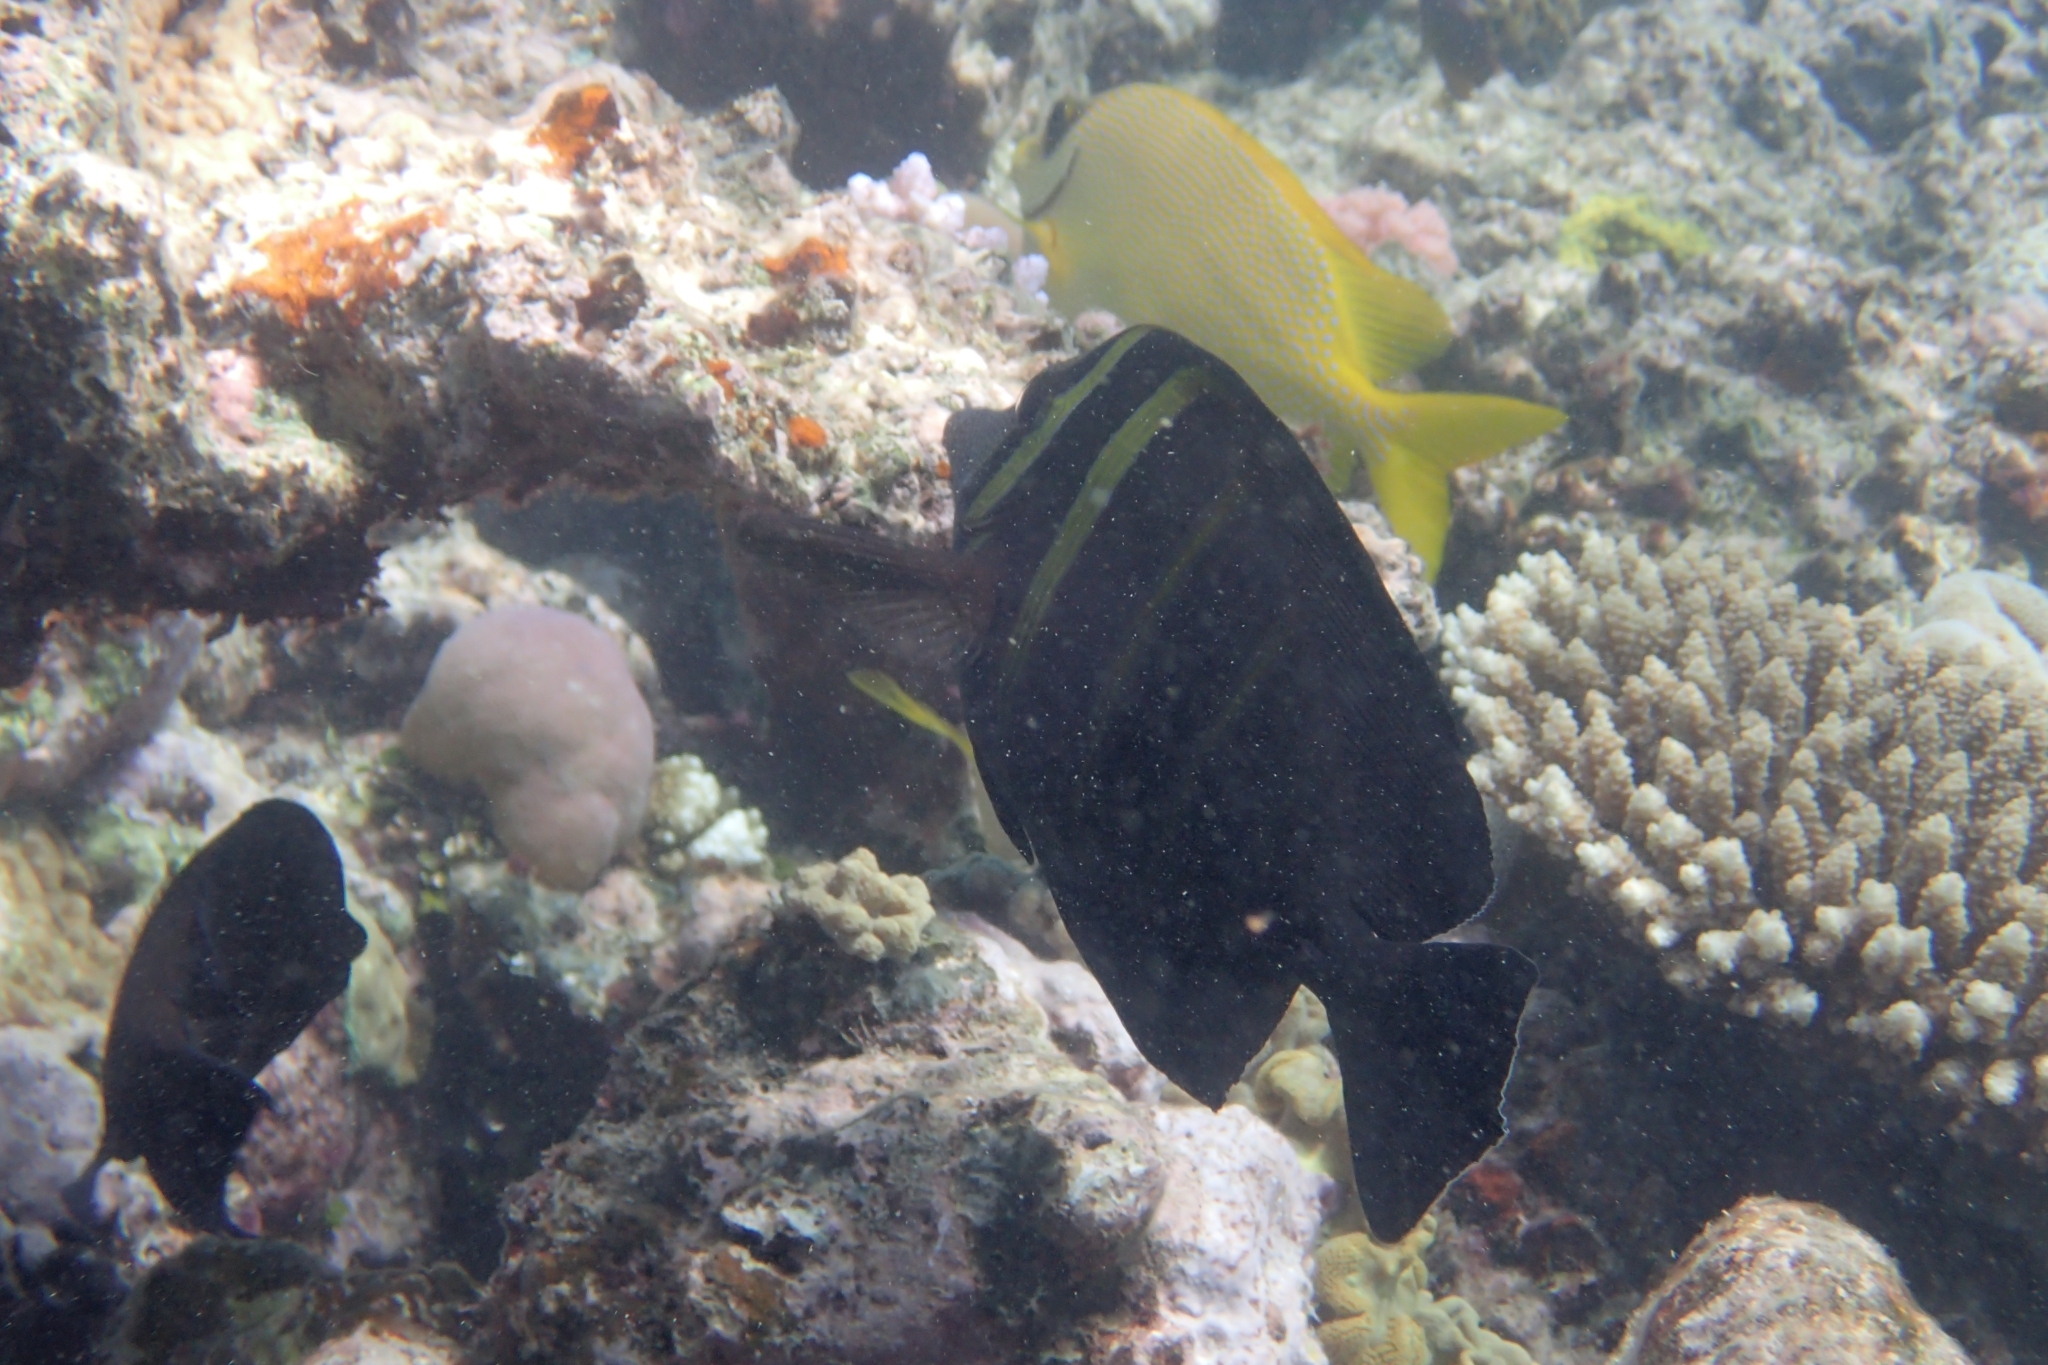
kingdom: Animalia
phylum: Chordata
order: Perciformes
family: Acanthuridae
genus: Zebrasoma
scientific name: Zebrasoma veliferum
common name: Sailfin surgeonfish
